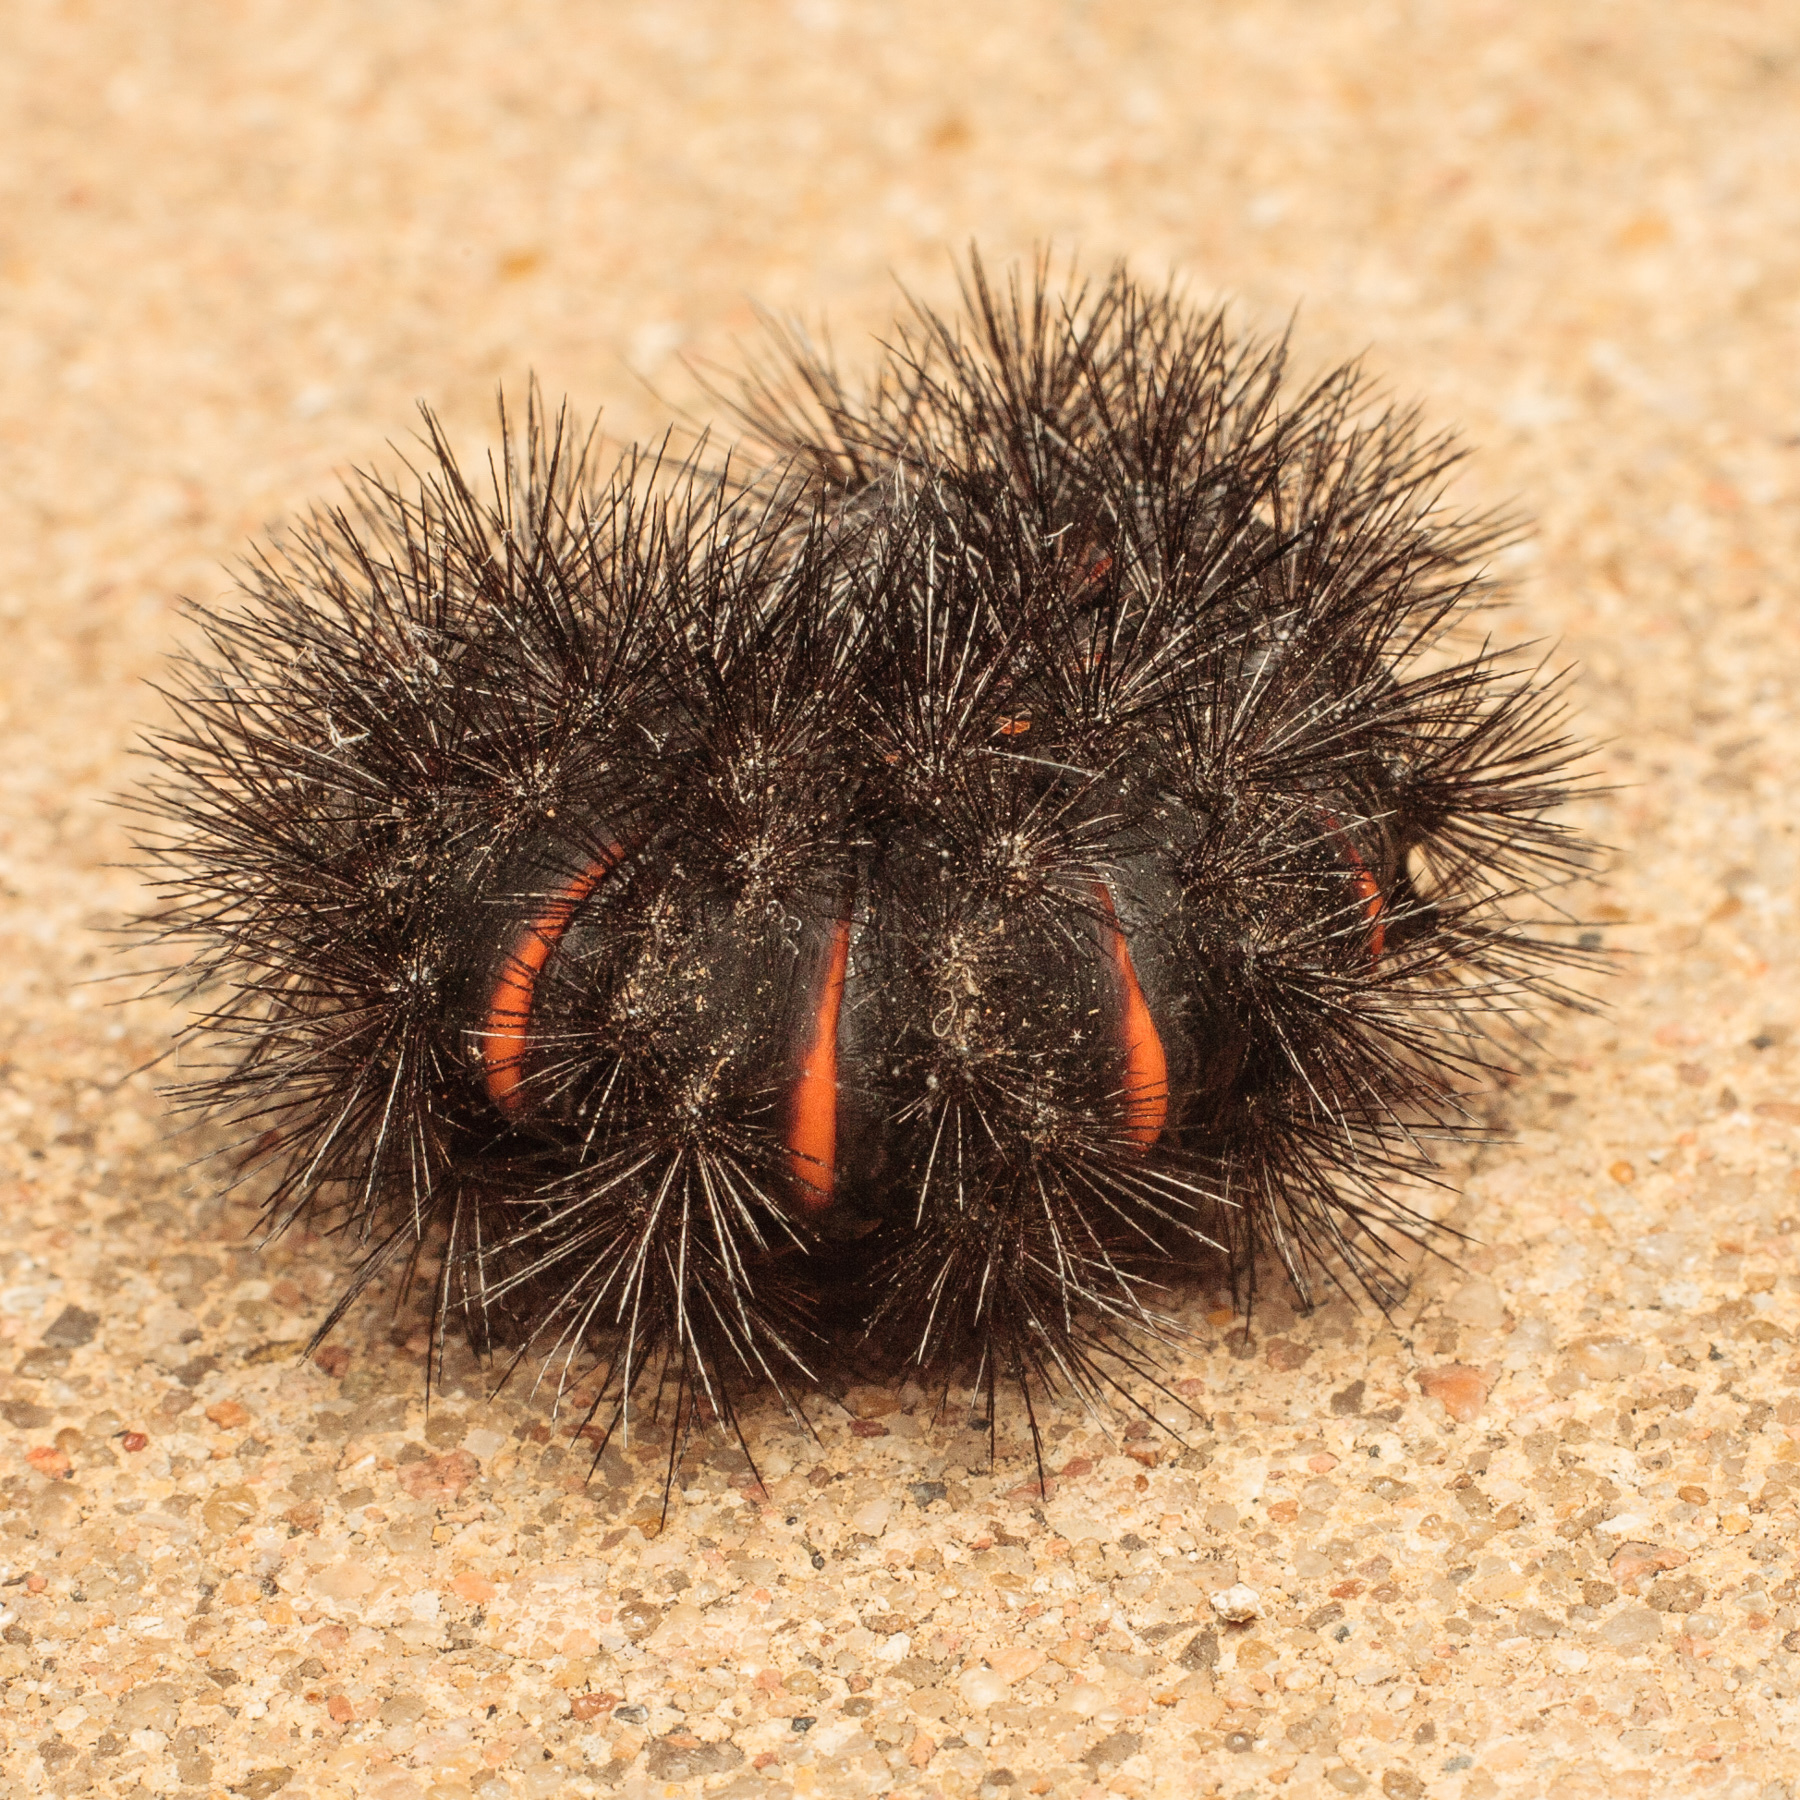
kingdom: Animalia
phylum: Arthropoda
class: Insecta
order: Lepidoptera
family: Erebidae
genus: Hypercompe
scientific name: Hypercompe scribonia
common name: Giant leopard moth
